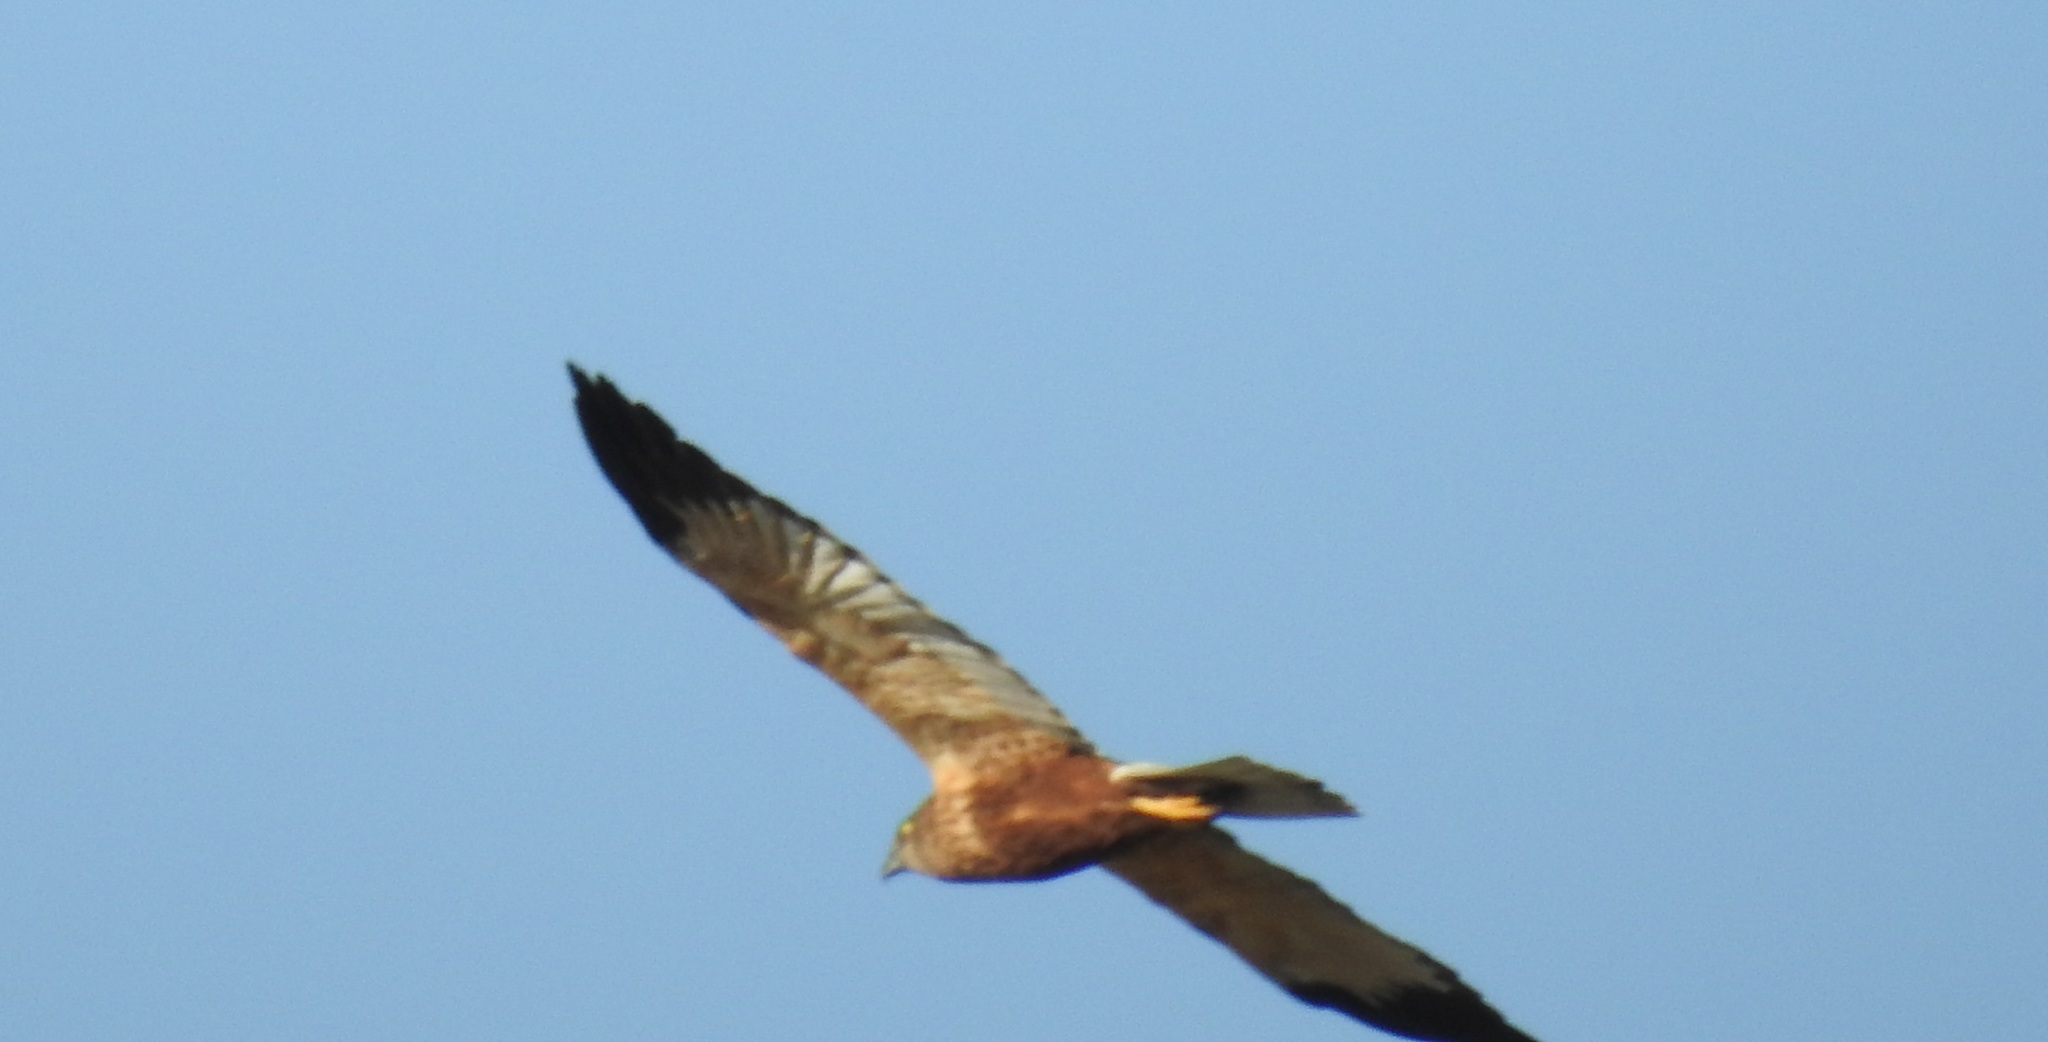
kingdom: Animalia
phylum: Chordata
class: Aves
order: Accipitriformes
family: Accipitridae
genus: Circus
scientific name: Circus aeruginosus
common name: Western marsh harrier
